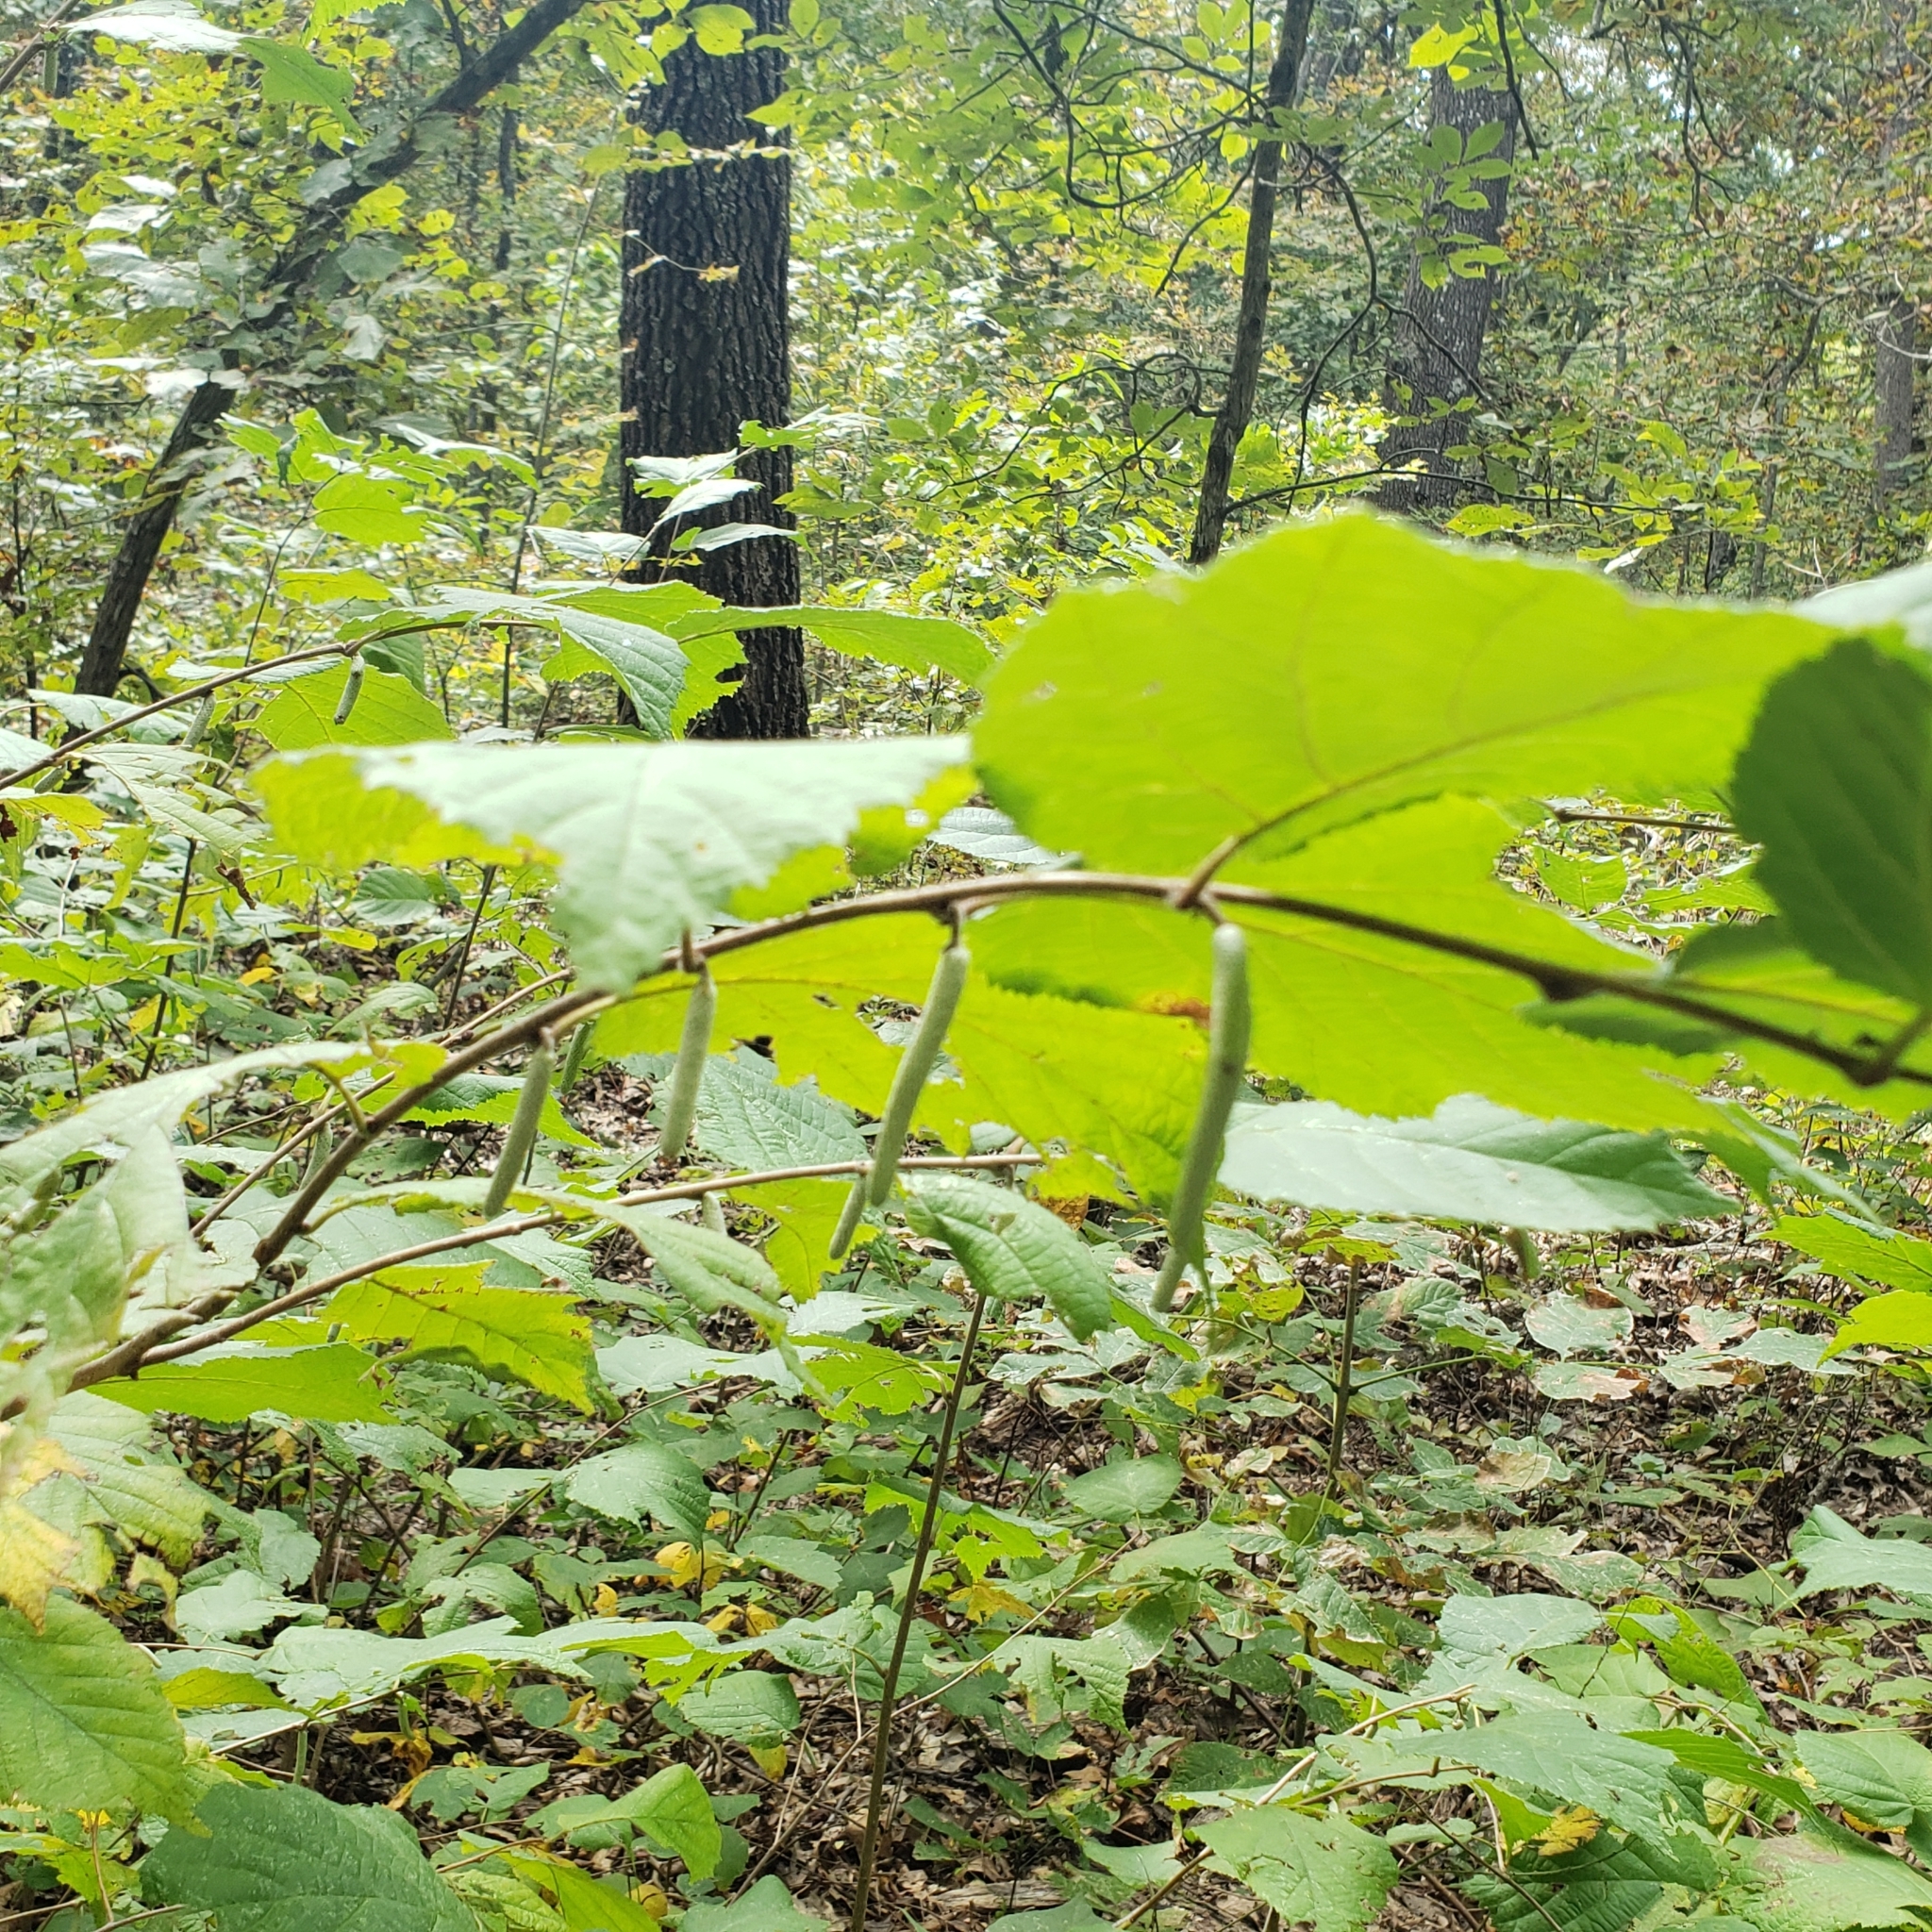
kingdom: Plantae
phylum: Tracheophyta
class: Magnoliopsida
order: Fagales
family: Betulaceae
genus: Corylus
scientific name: Corylus americana
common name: American hazel
